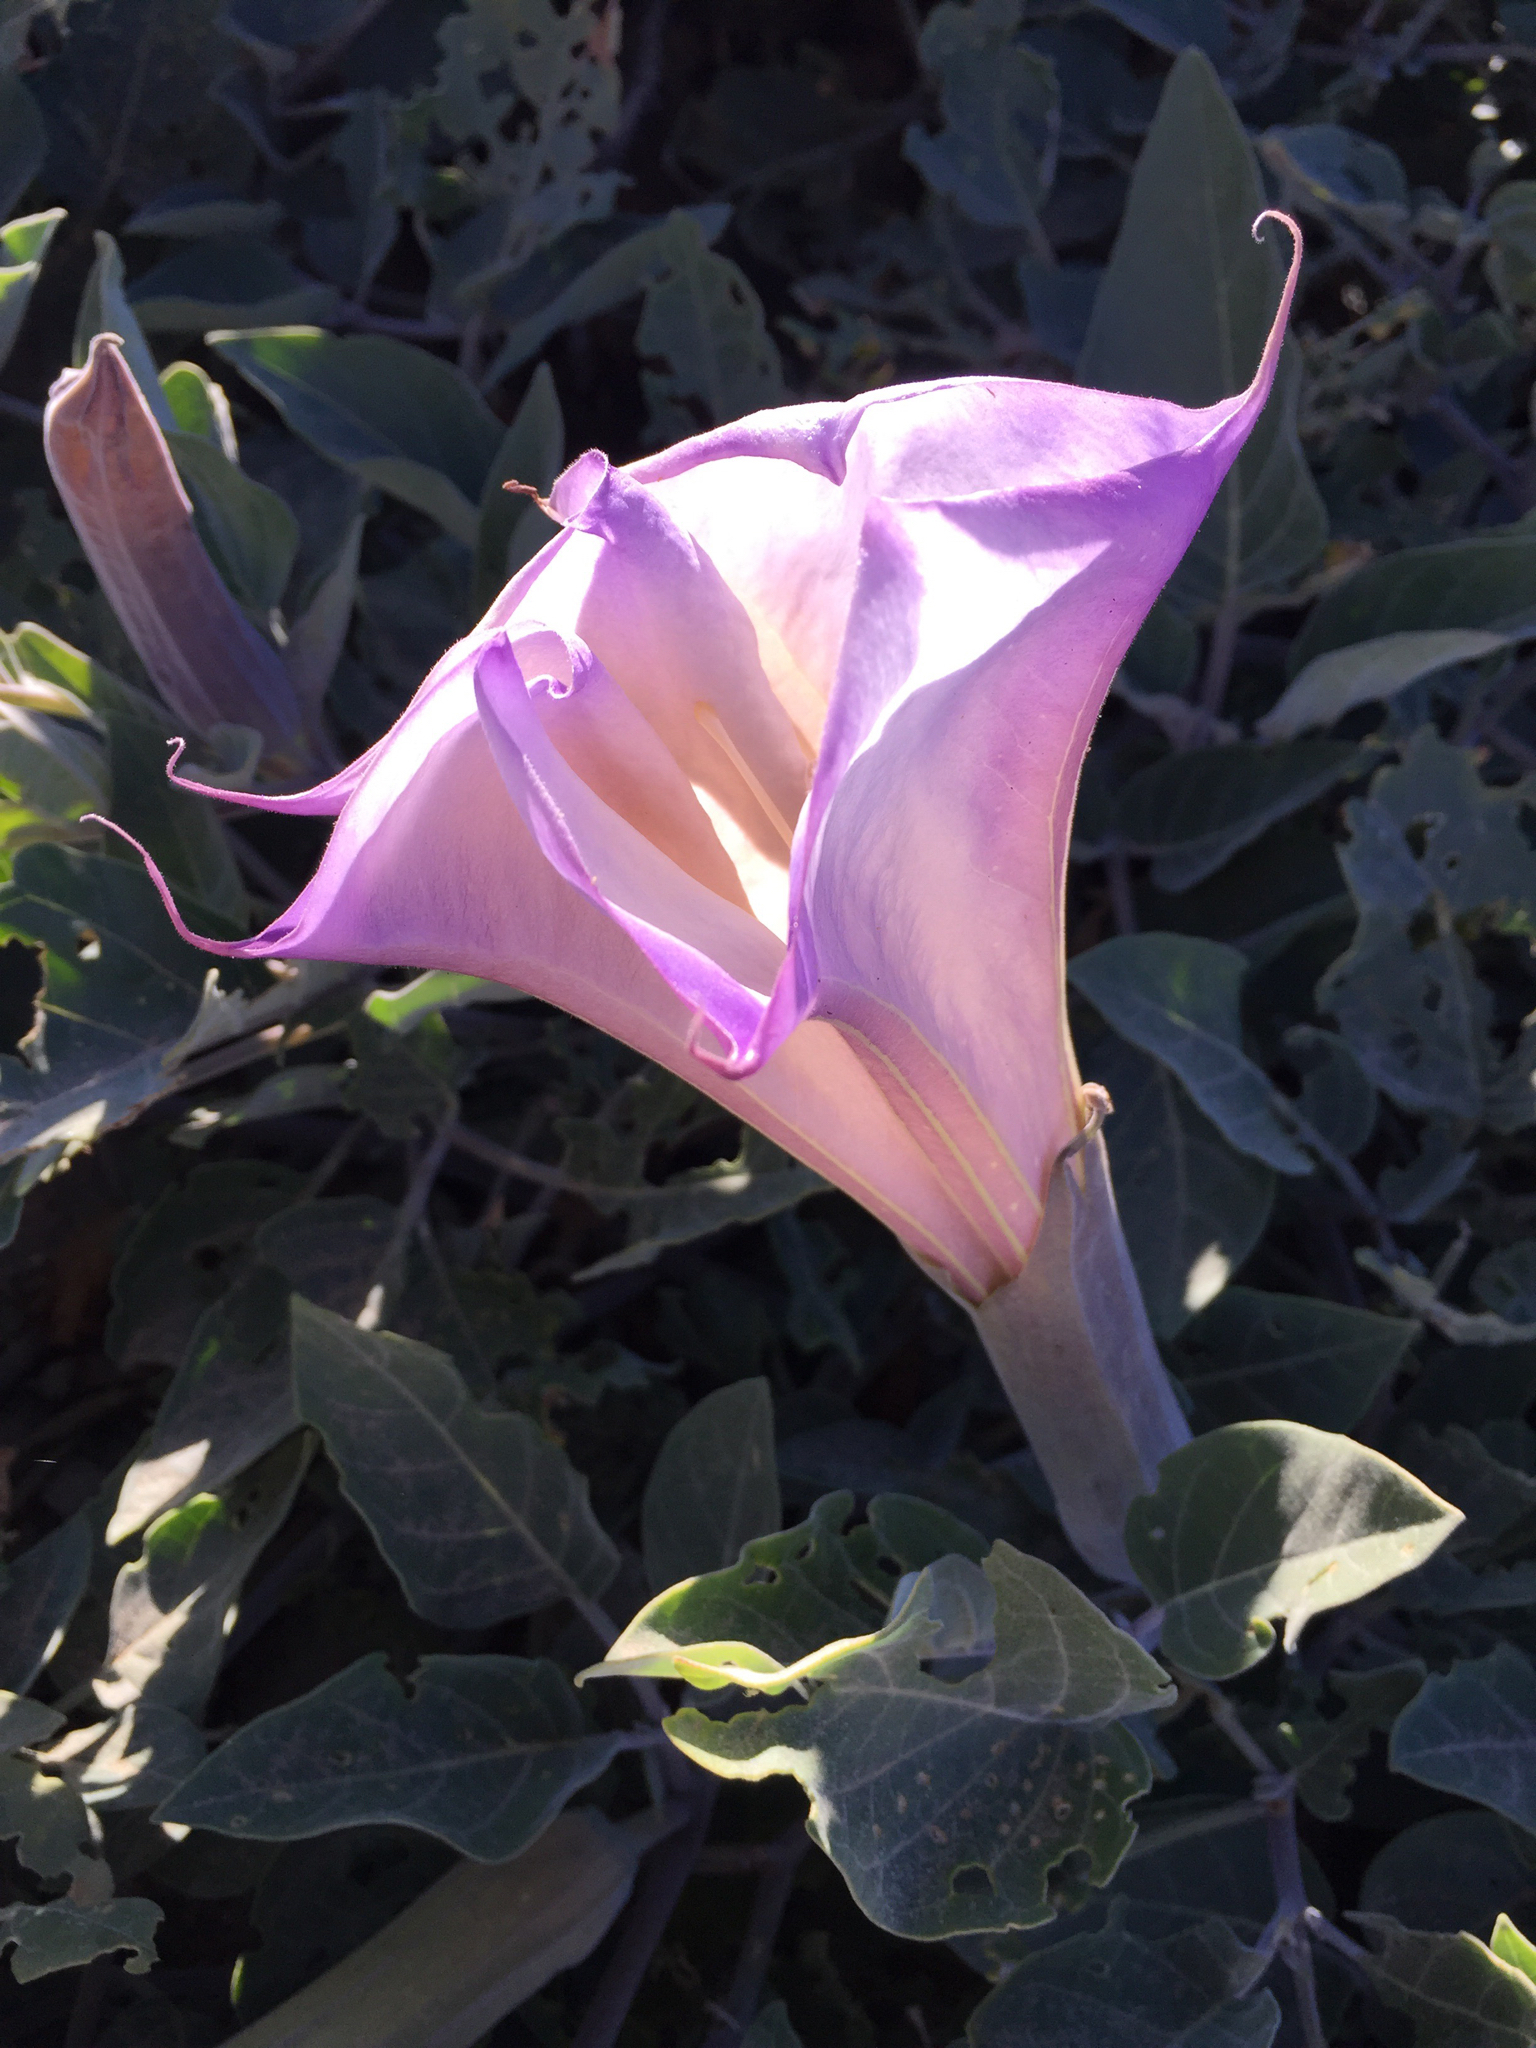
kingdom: Plantae
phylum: Tracheophyta
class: Magnoliopsida
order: Solanales
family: Solanaceae
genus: Datura
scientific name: Datura wrightii
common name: Sacred thorn-apple
